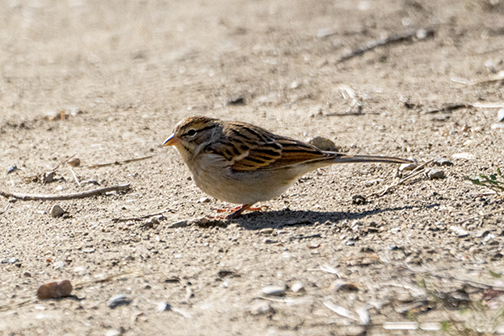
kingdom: Animalia
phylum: Chordata
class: Aves
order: Passeriformes
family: Passerellidae
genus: Spizella
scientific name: Spizella passerina
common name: Chipping sparrow
